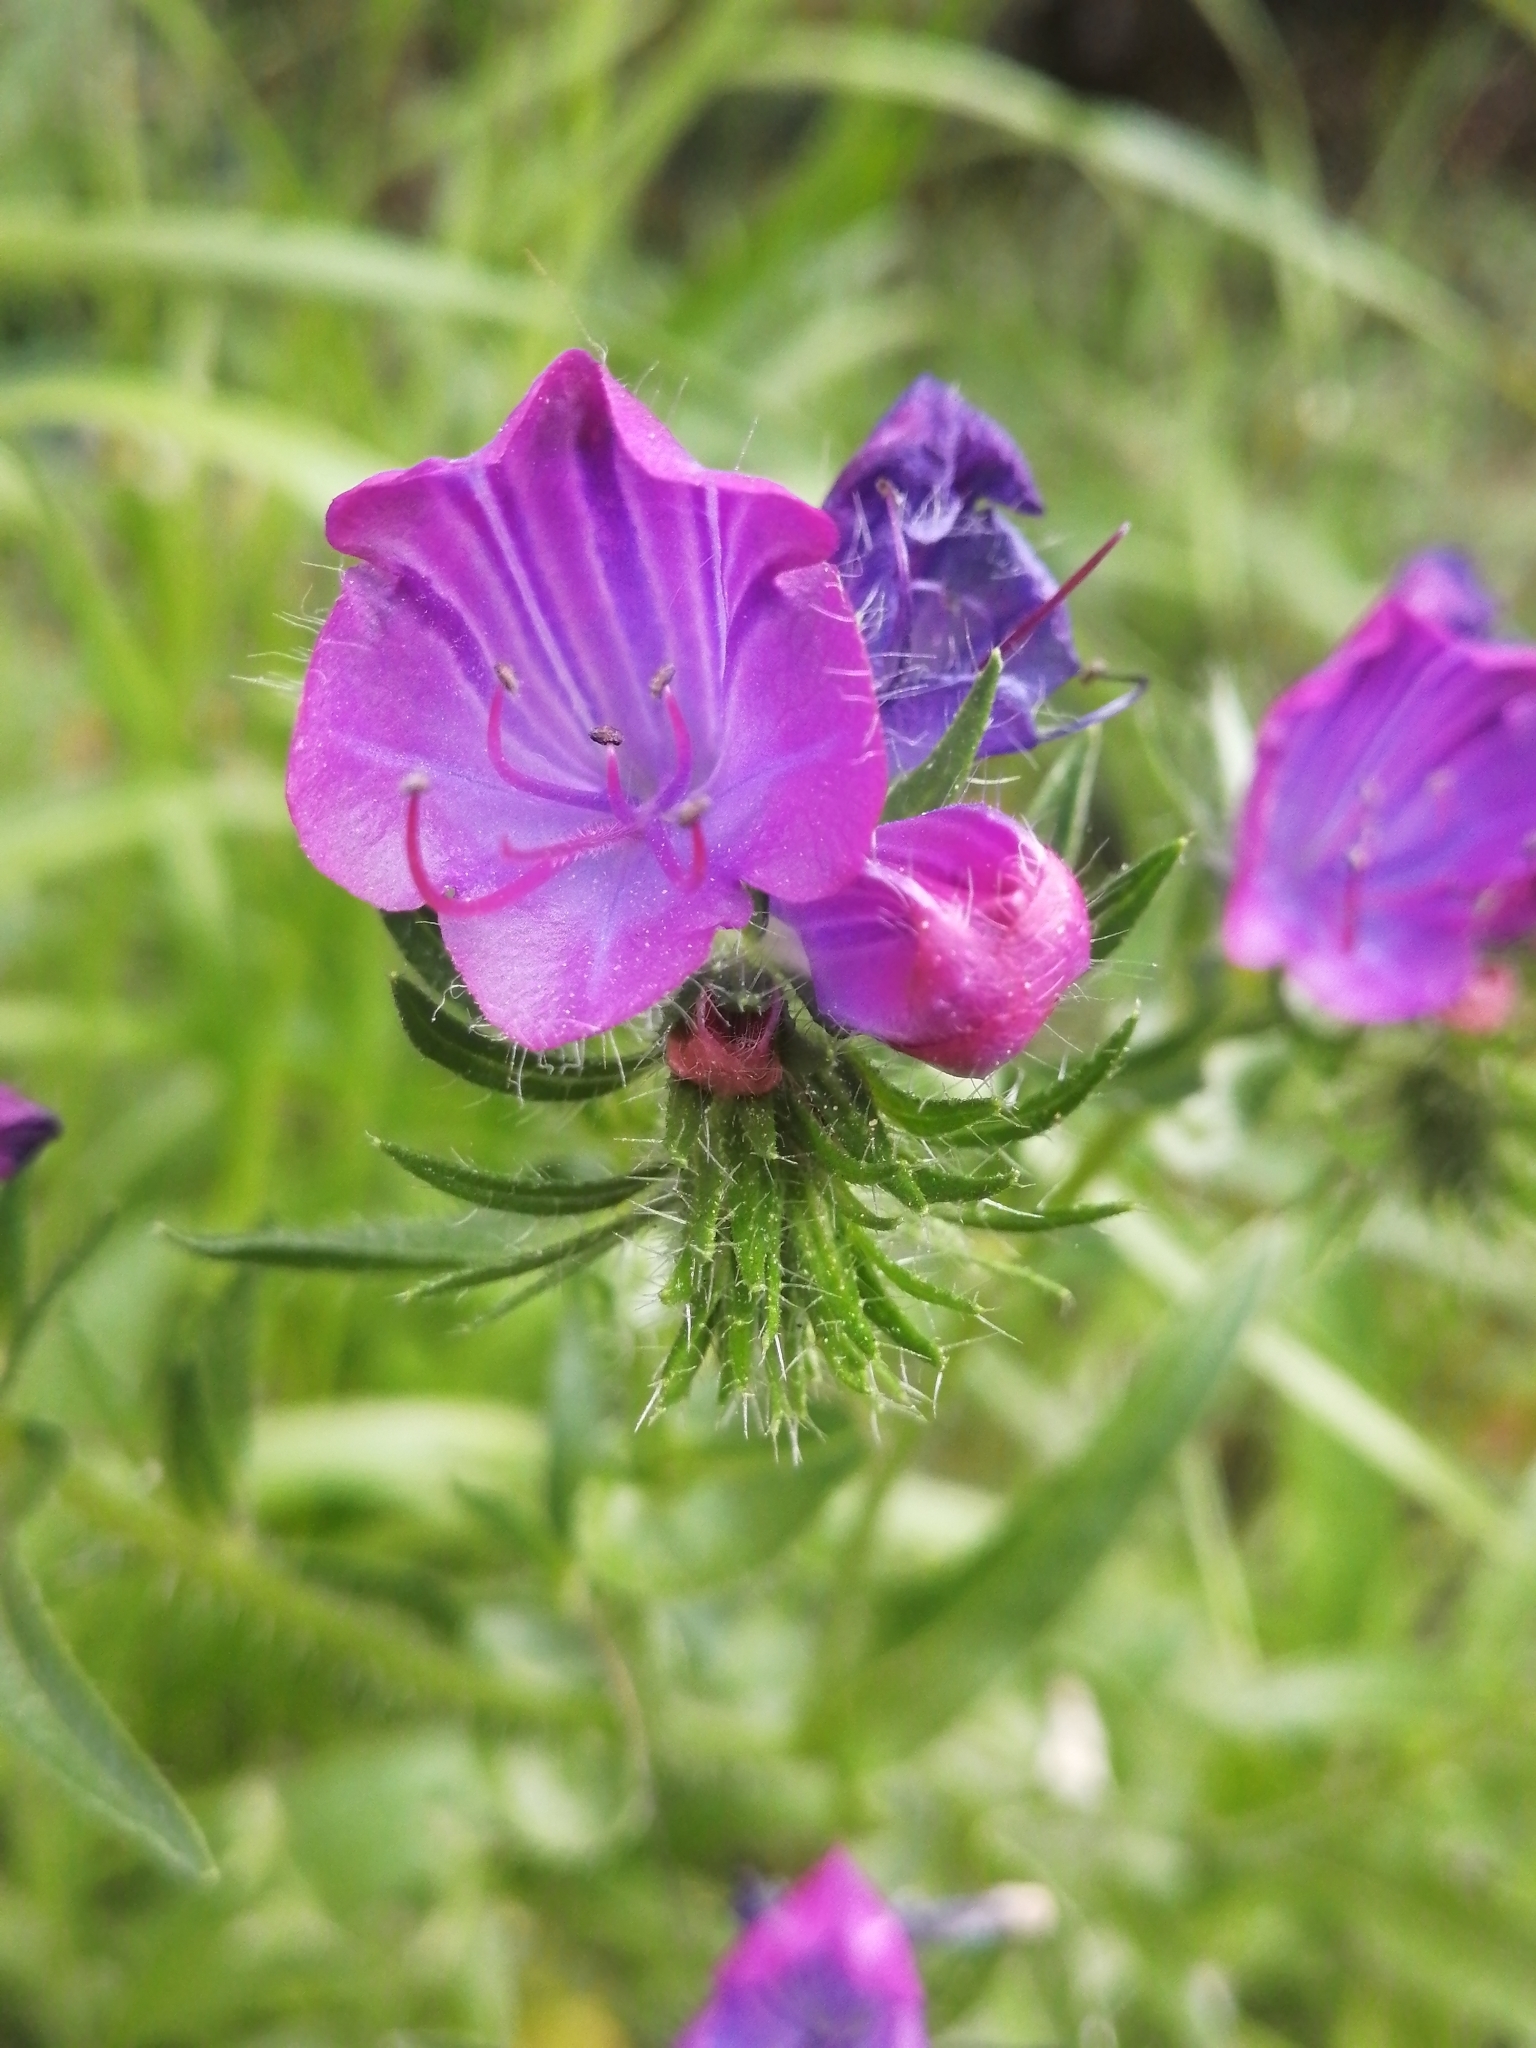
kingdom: Plantae
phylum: Tracheophyta
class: Magnoliopsida
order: Boraginales
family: Boraginaceae
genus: Echium
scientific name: Echium plantagineum
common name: Purple viper's-bugloss
